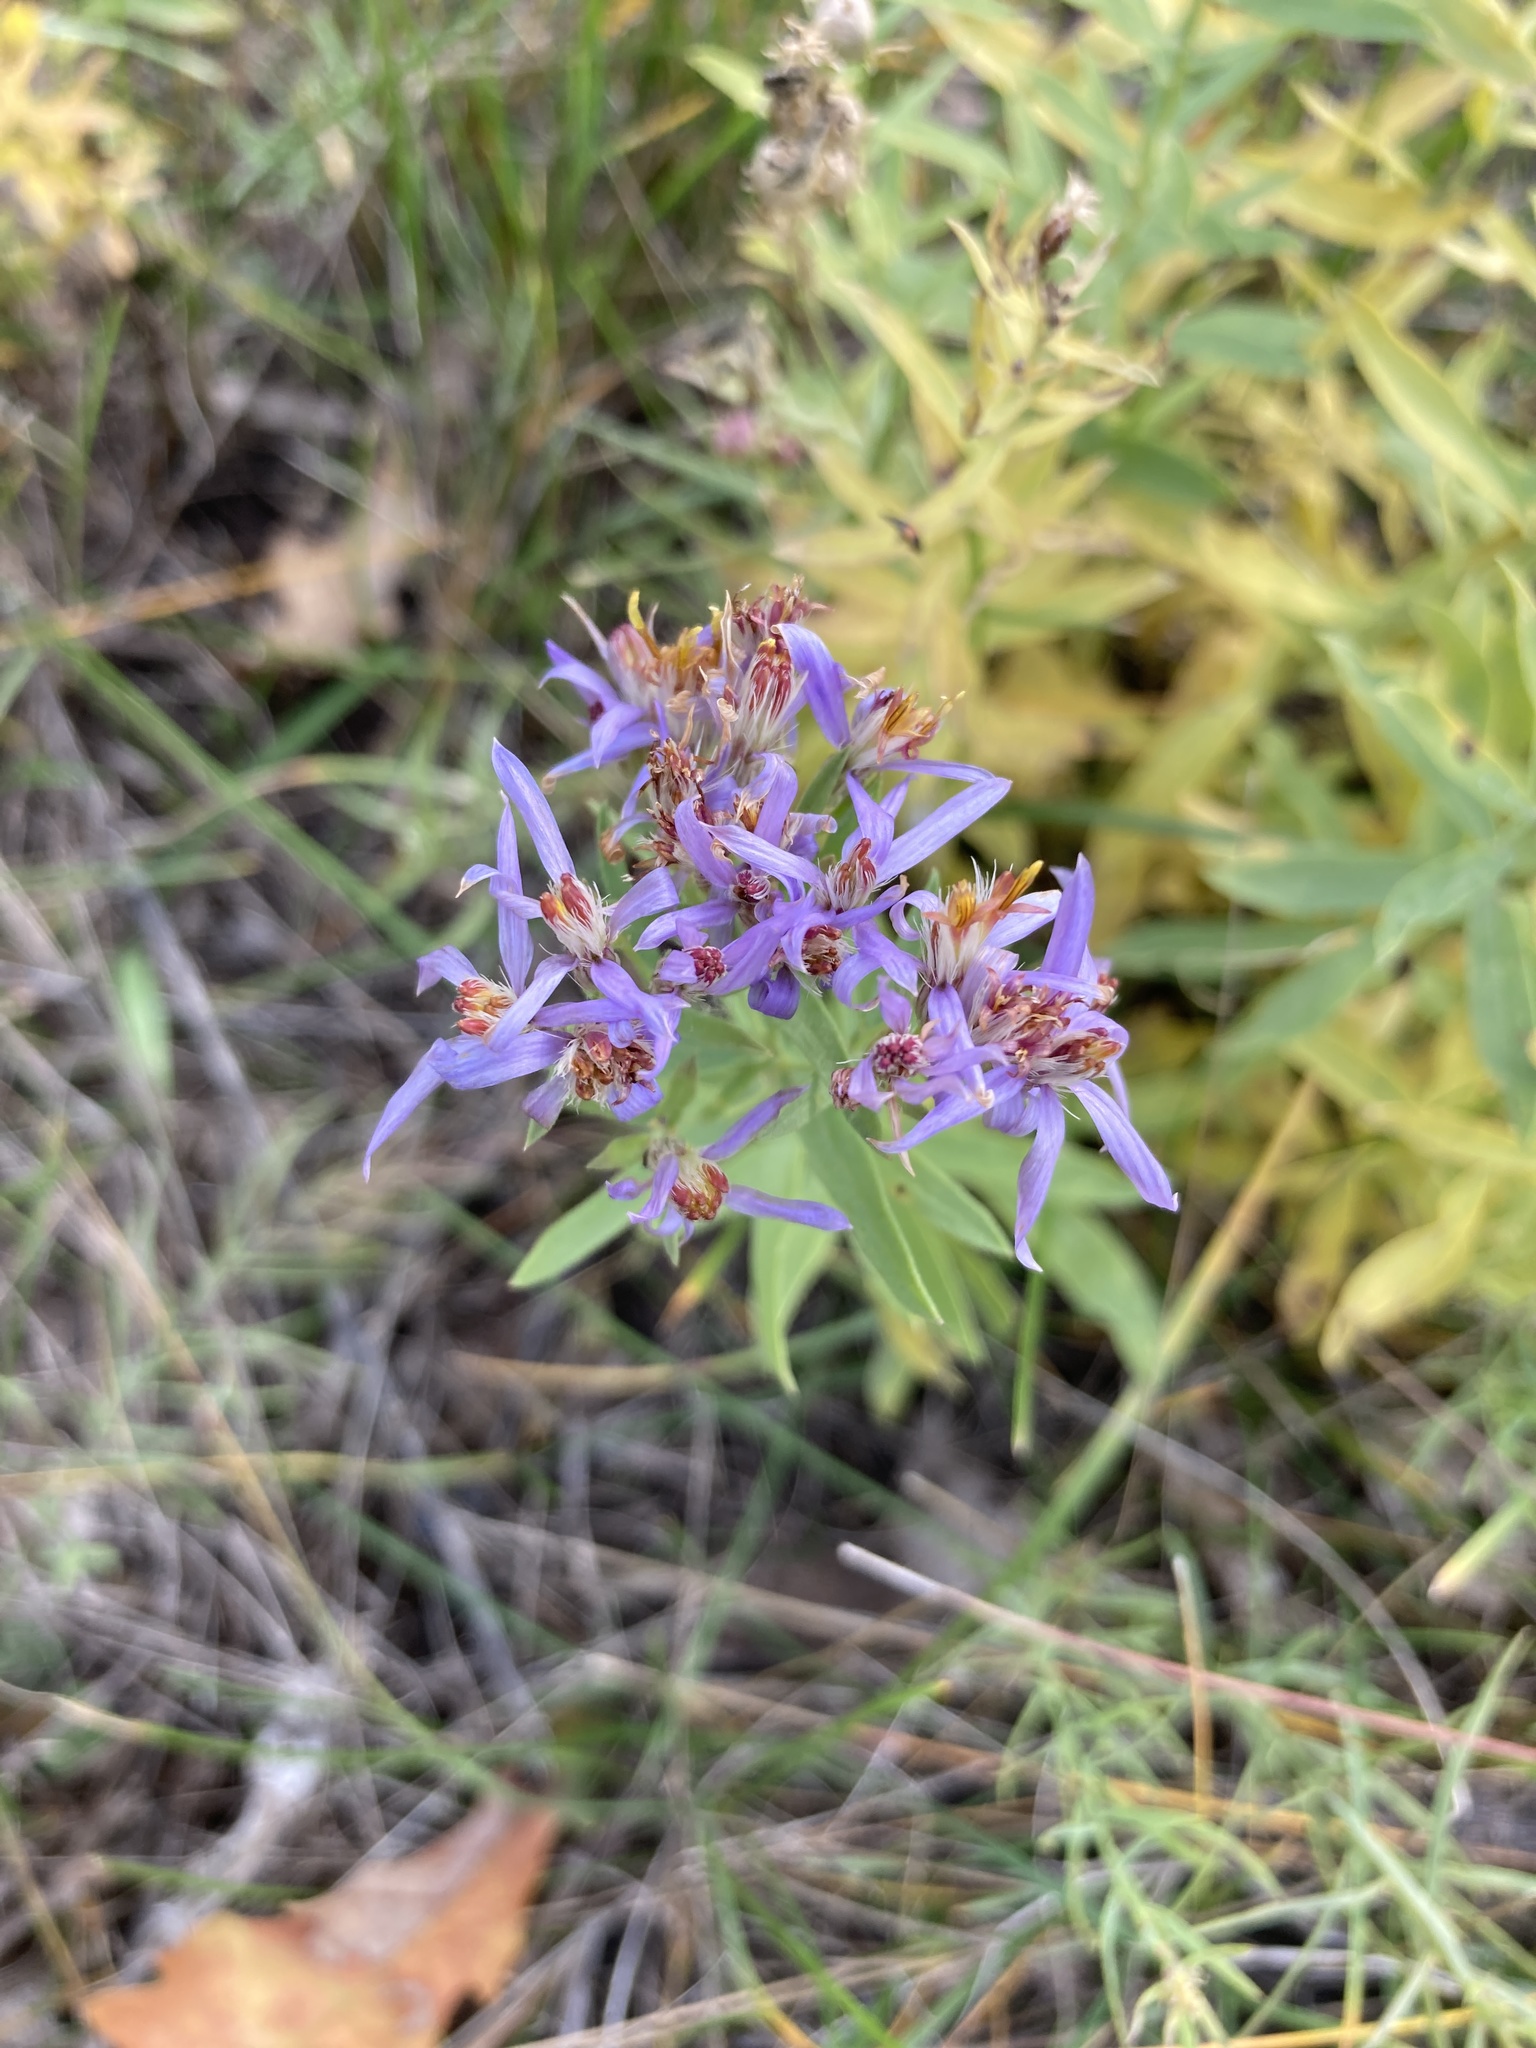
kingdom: Plantae
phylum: Tracheophyta
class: Magnoliopsida
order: Asterales
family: Asteraceae
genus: Galatella
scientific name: Galatella sedifolia
